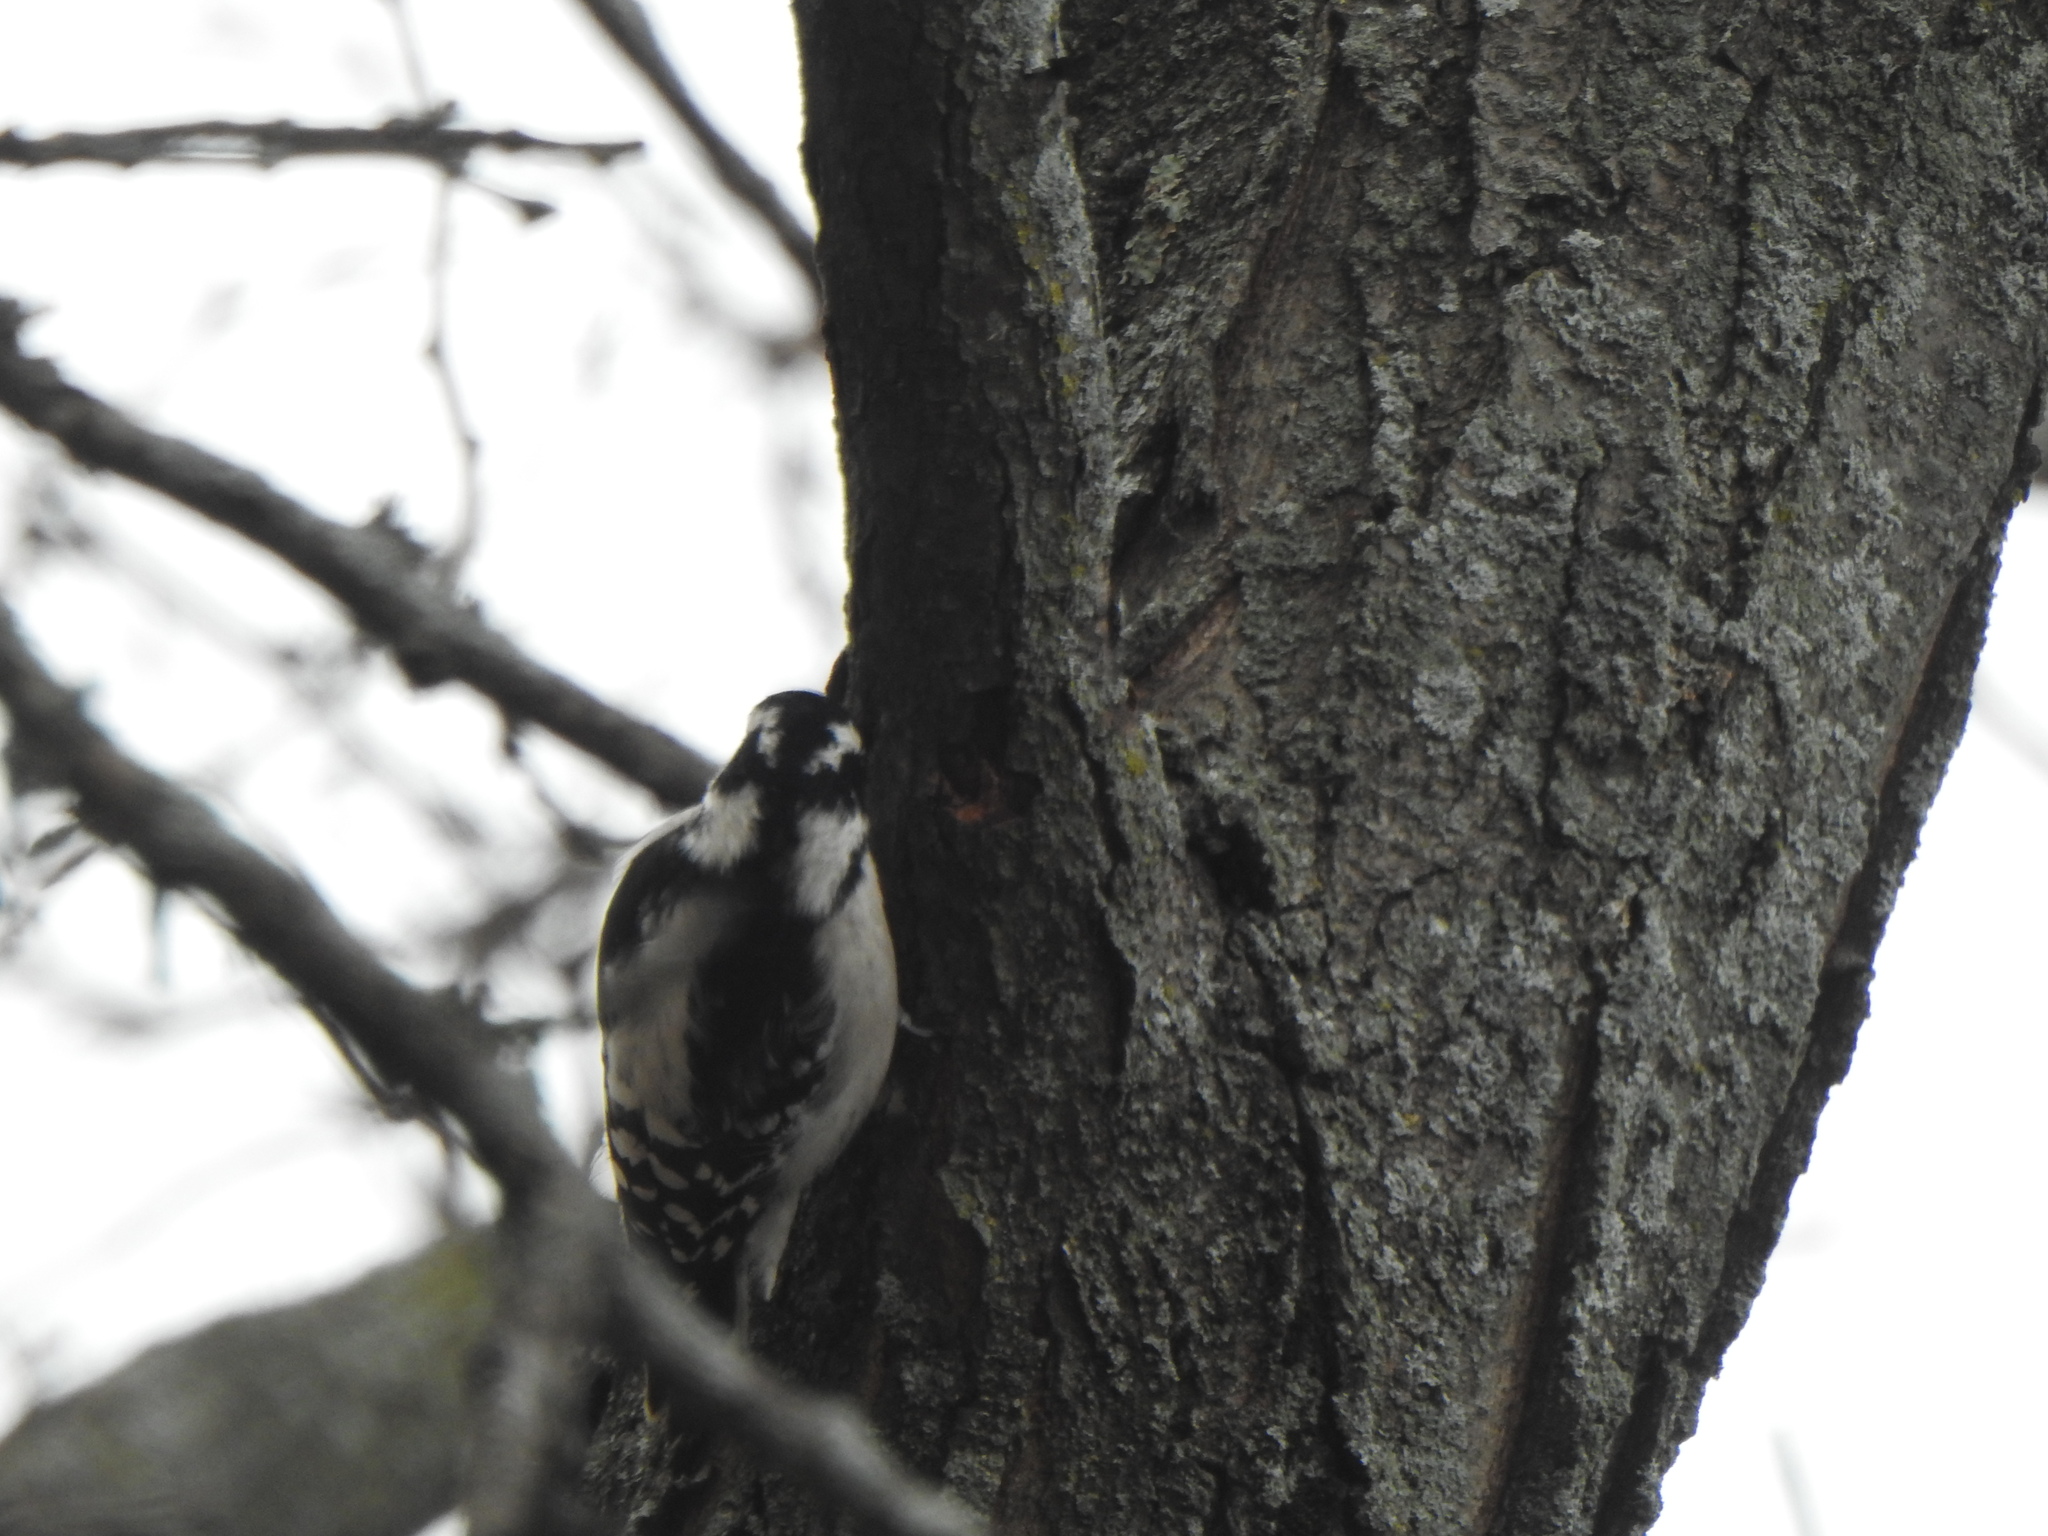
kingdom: Animalia
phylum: Chordata
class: Aves
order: Piciformes
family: Picidae
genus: Dryobates
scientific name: Dryobates pubescens
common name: Downy woodpecker
